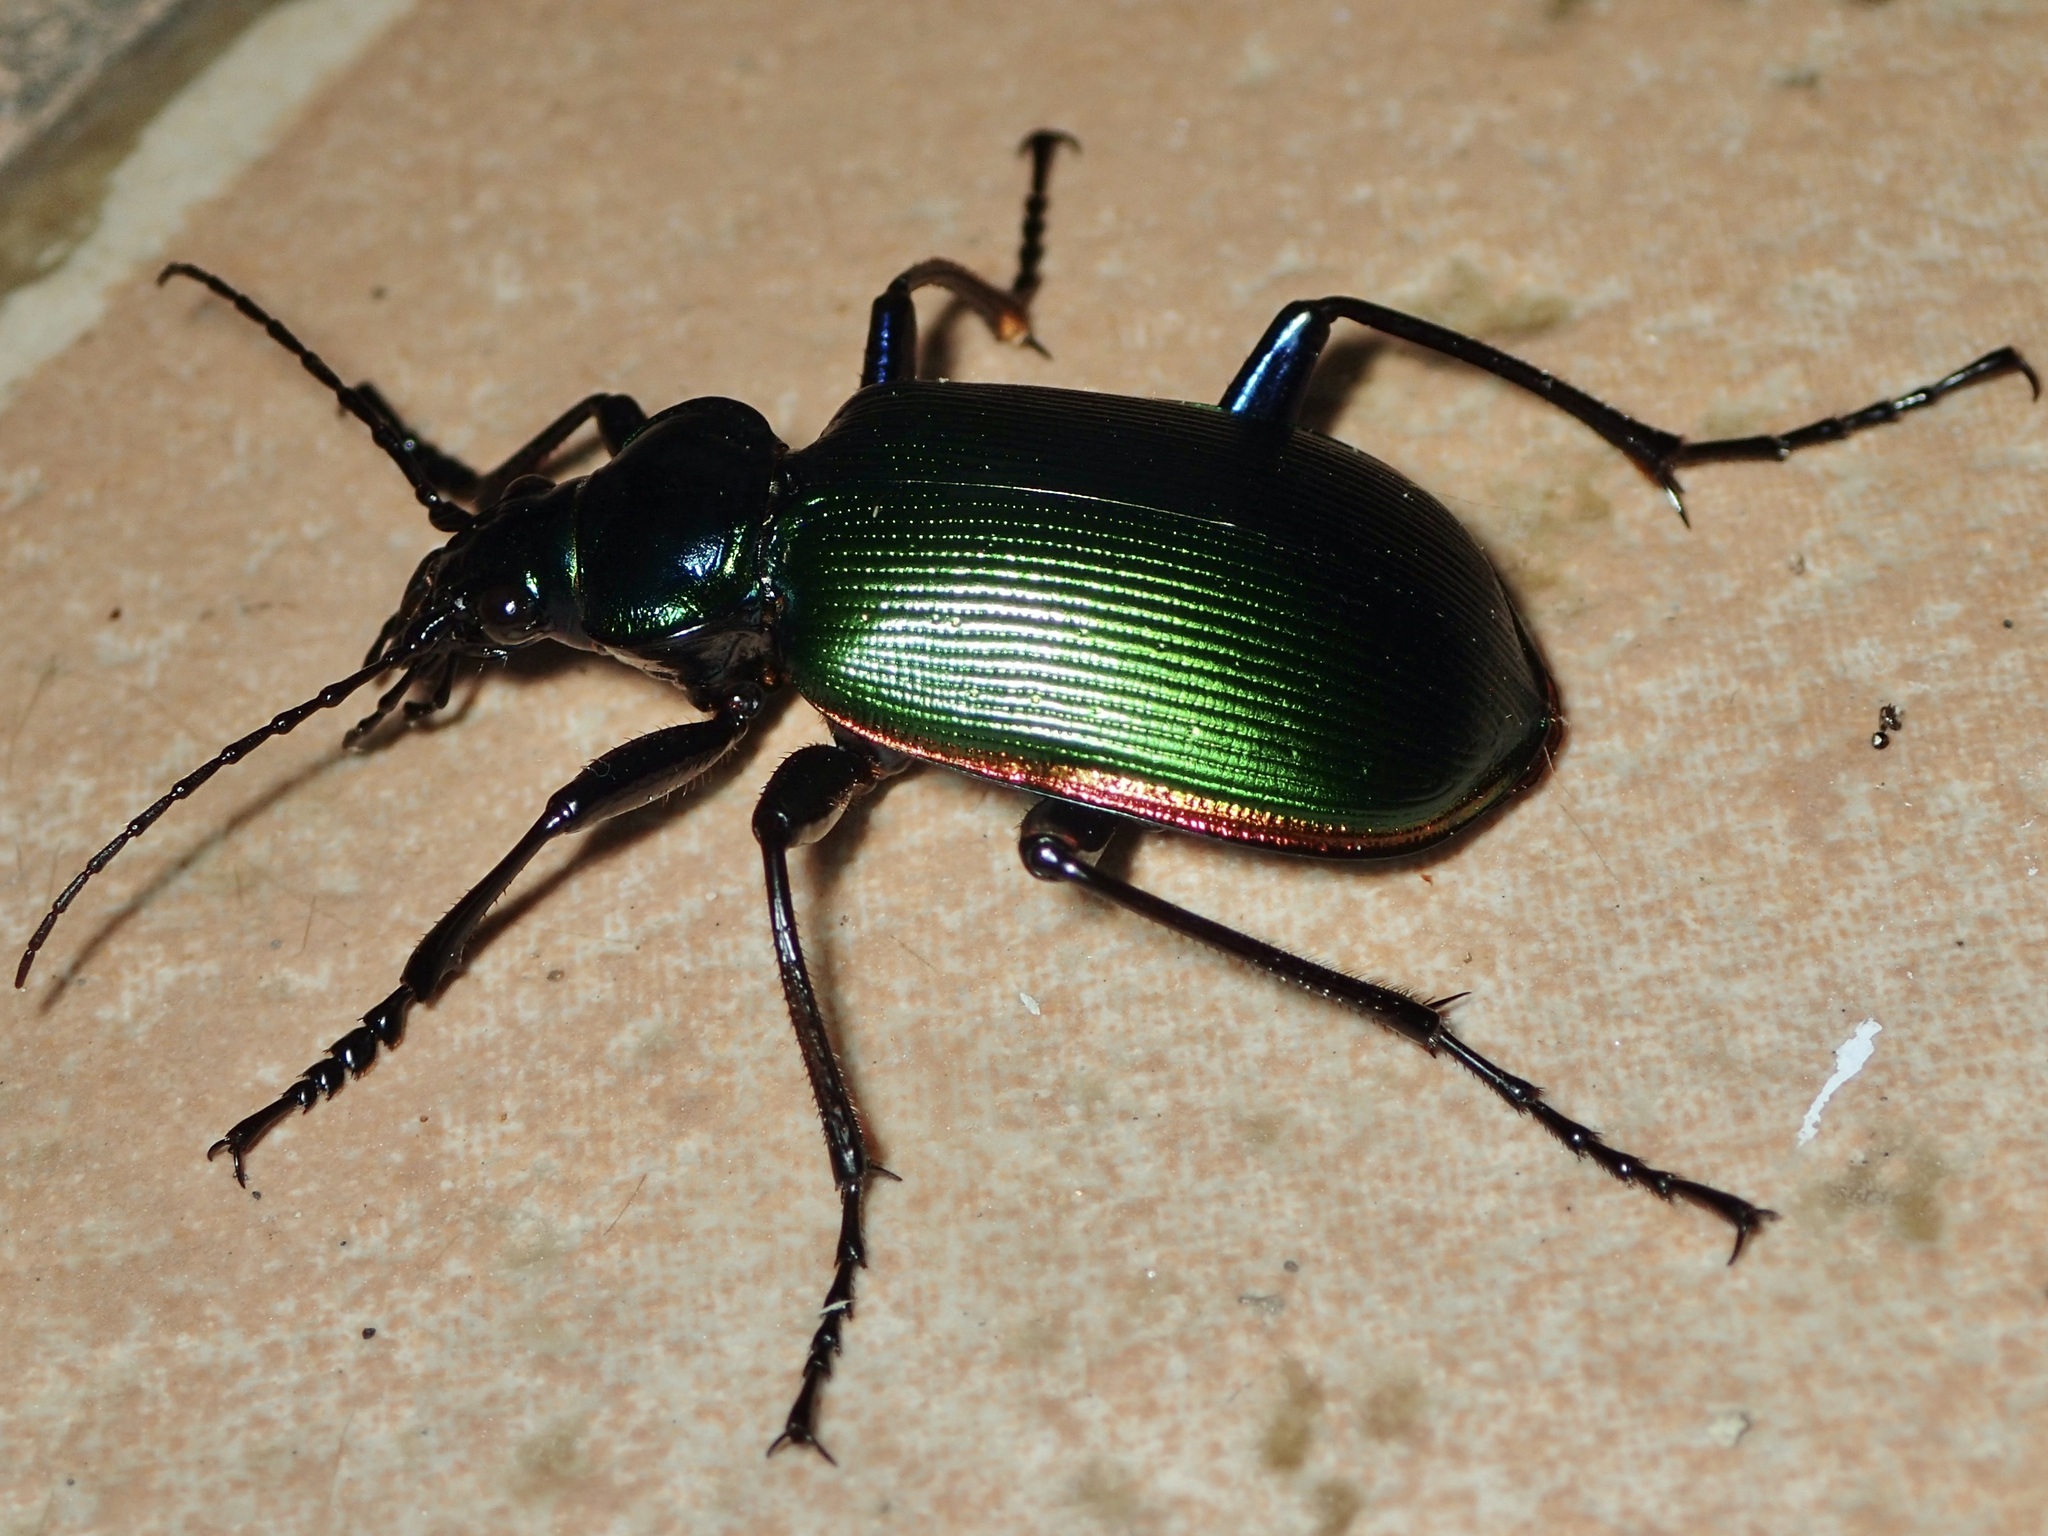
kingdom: Animalia
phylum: Arthropoda
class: Insecta
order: Coleoptera
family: Carabidae
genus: Calosoma
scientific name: Calosoma scrutator
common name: Fiery searcher beetle
